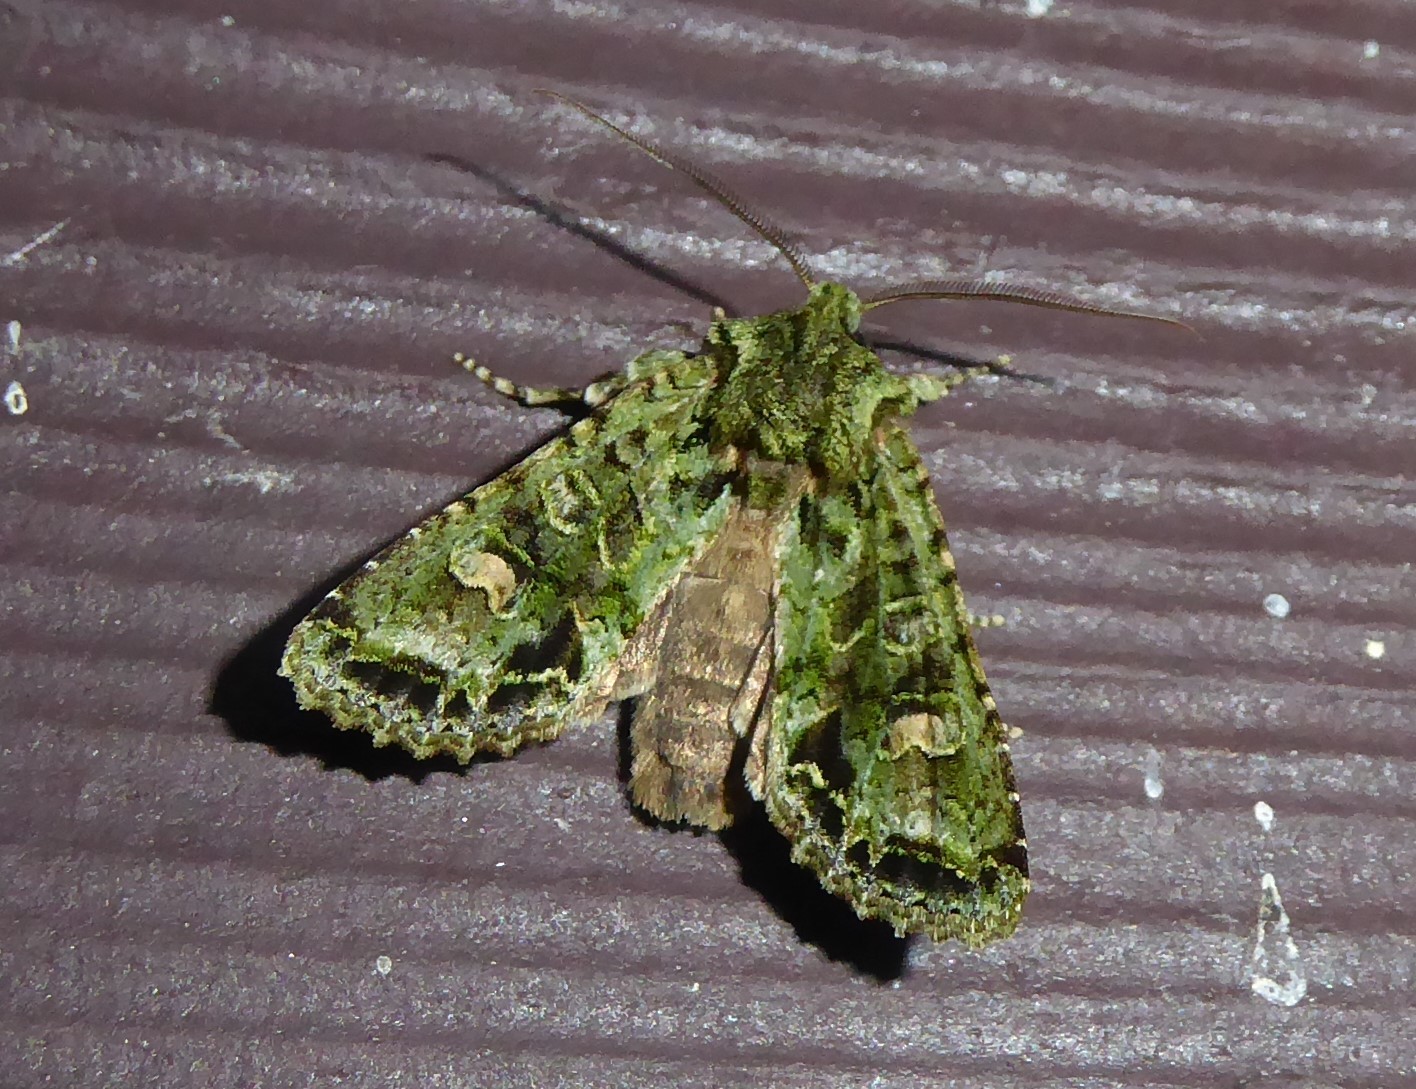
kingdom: Animalia
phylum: Arthropoda
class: Insecta
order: Lepidoptera
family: Noctuidae
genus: Ichneutica
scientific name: Ichneutica
